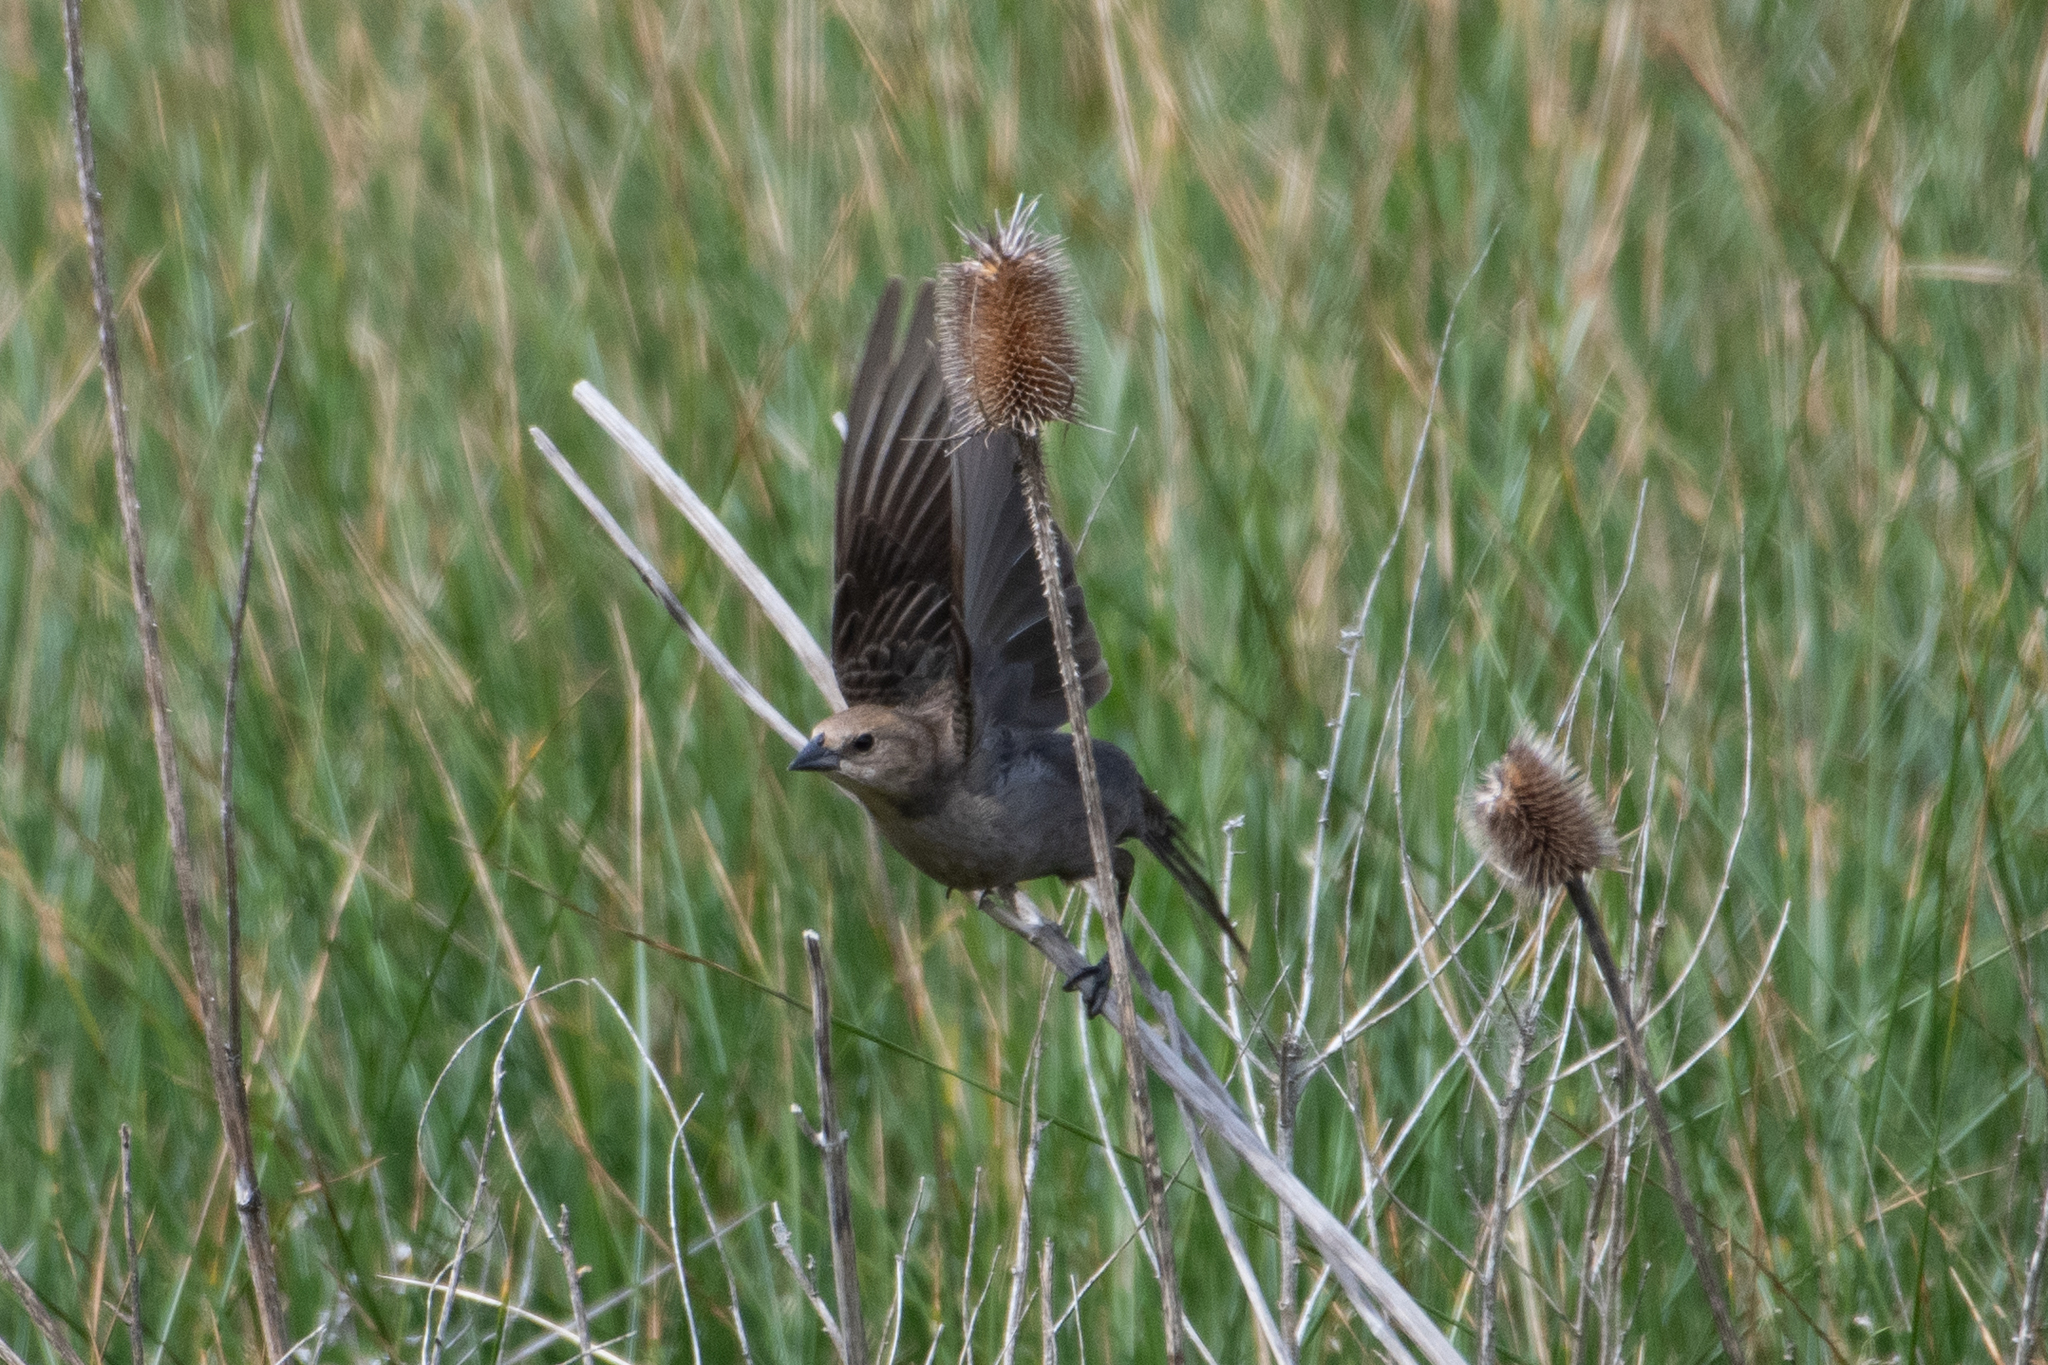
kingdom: Animalia
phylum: Chordata
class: Aves
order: Passeriformes
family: Icteridae
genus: Molothrus
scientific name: Molothrus ater
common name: Brown-headed cowbird
